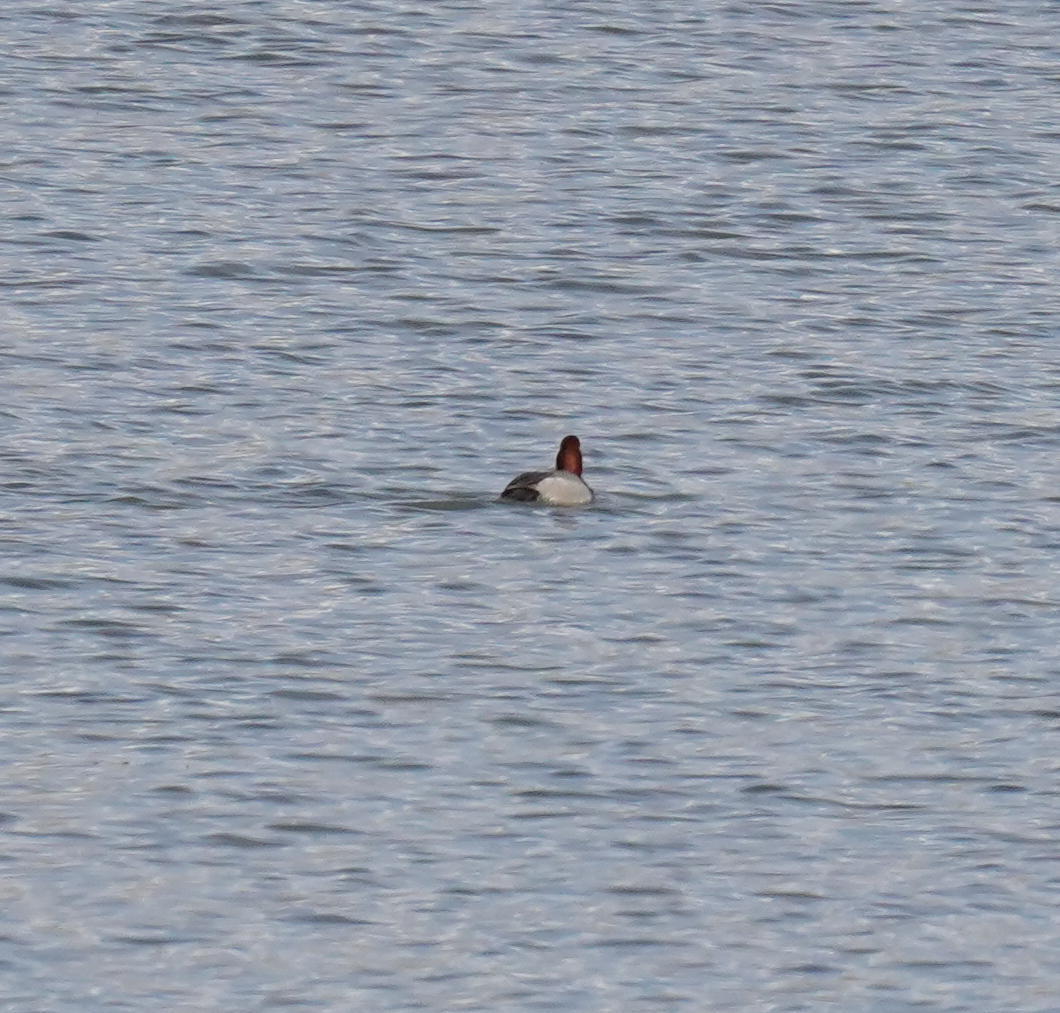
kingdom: Animalia
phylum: Chordata
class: Aves
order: Anseriformes
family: Anatidae
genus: Aythya
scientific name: Aythya americana
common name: Redhead
